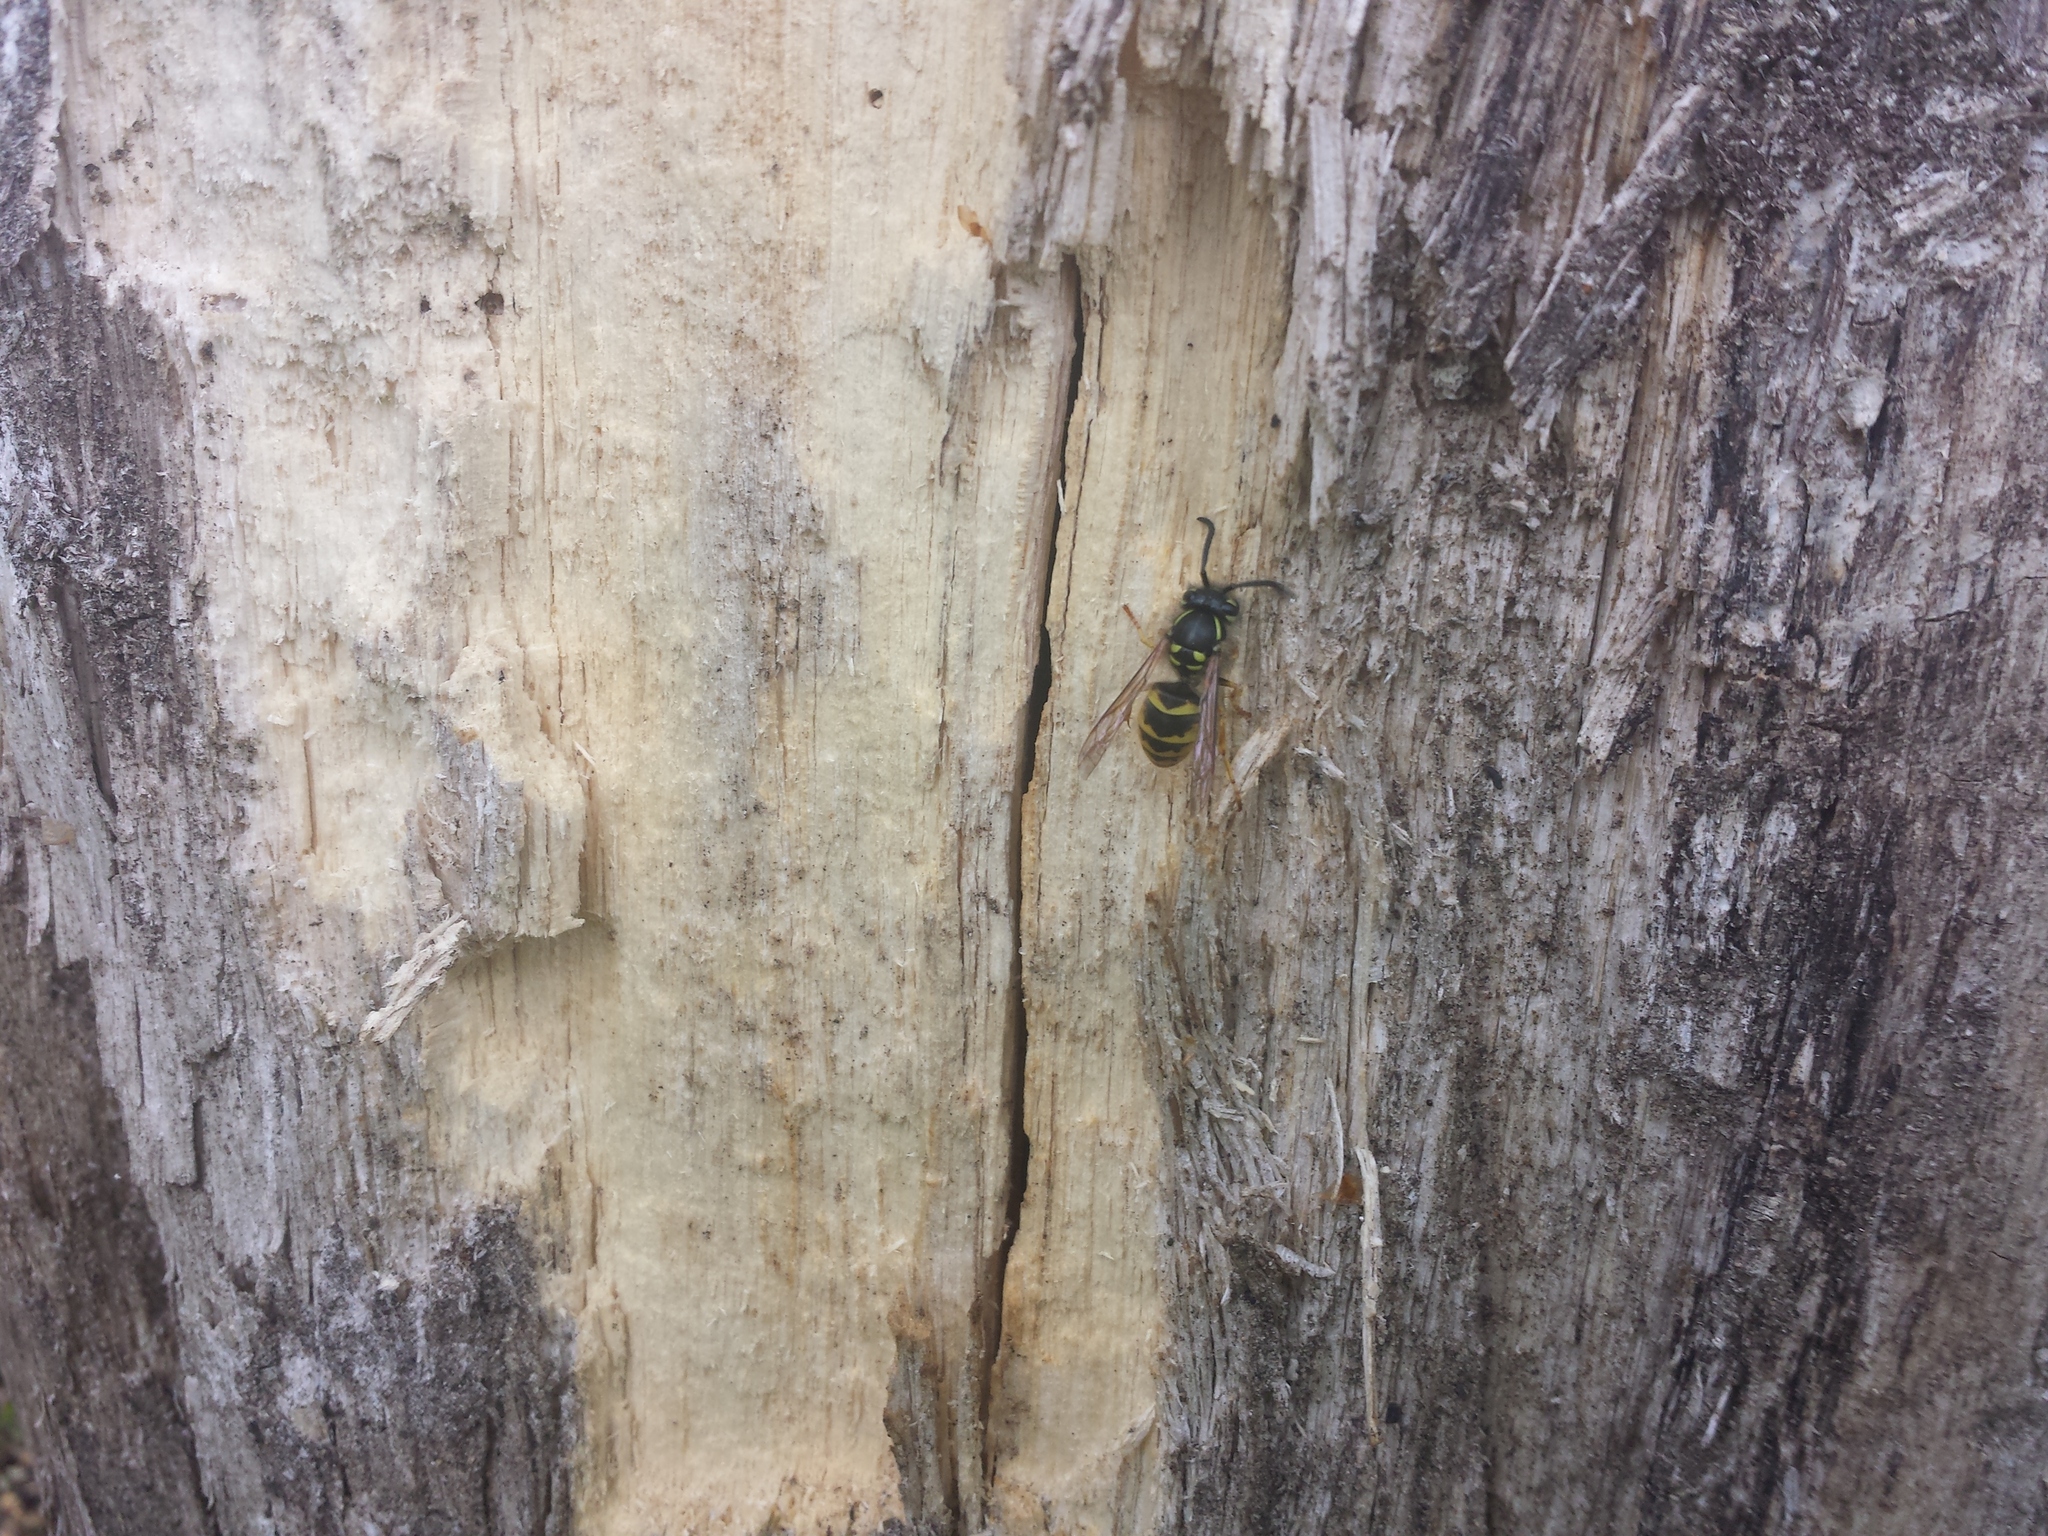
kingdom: Animalia
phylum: Arthropoda
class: Insecta
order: Hymenoptera
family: Vespidae
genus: Vespula
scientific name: Vespula vulgaris
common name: Common wasp
